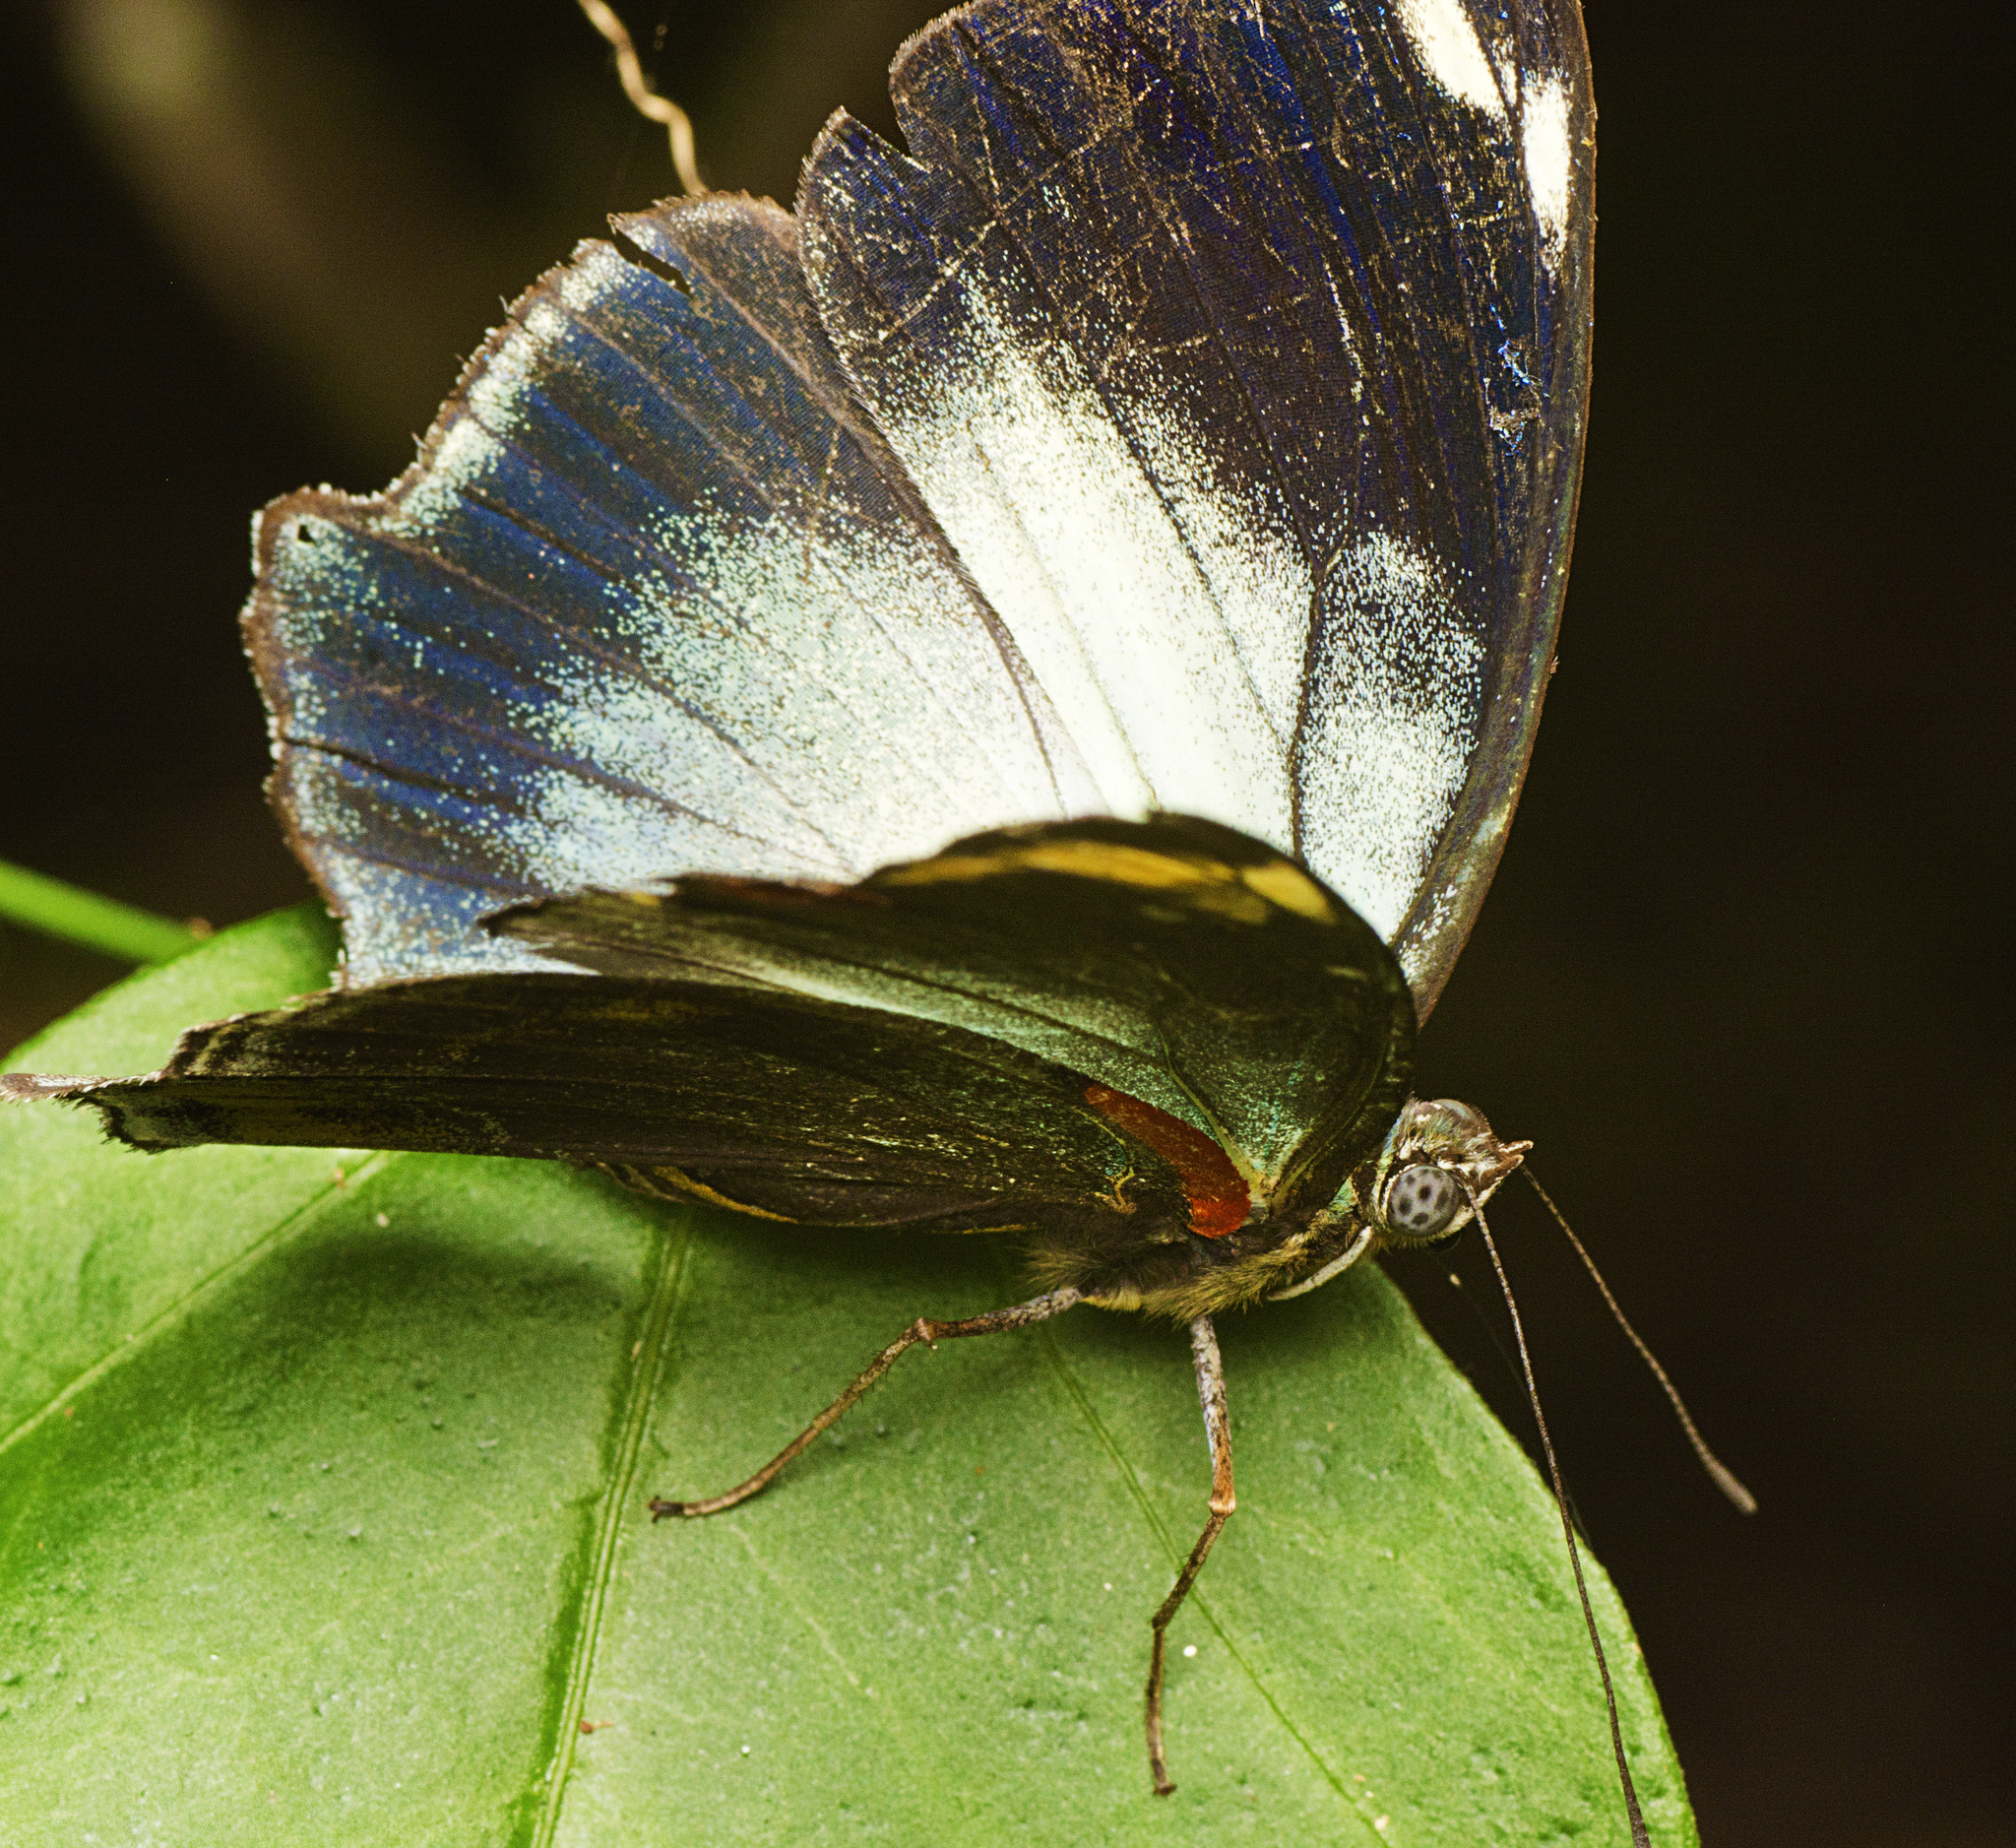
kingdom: Animalia
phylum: Arthropoda
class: Insecta
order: Lepidoptera
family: Nymphalidae
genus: Mynes
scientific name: Mynes geoffroyi
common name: Jezebel nymph
